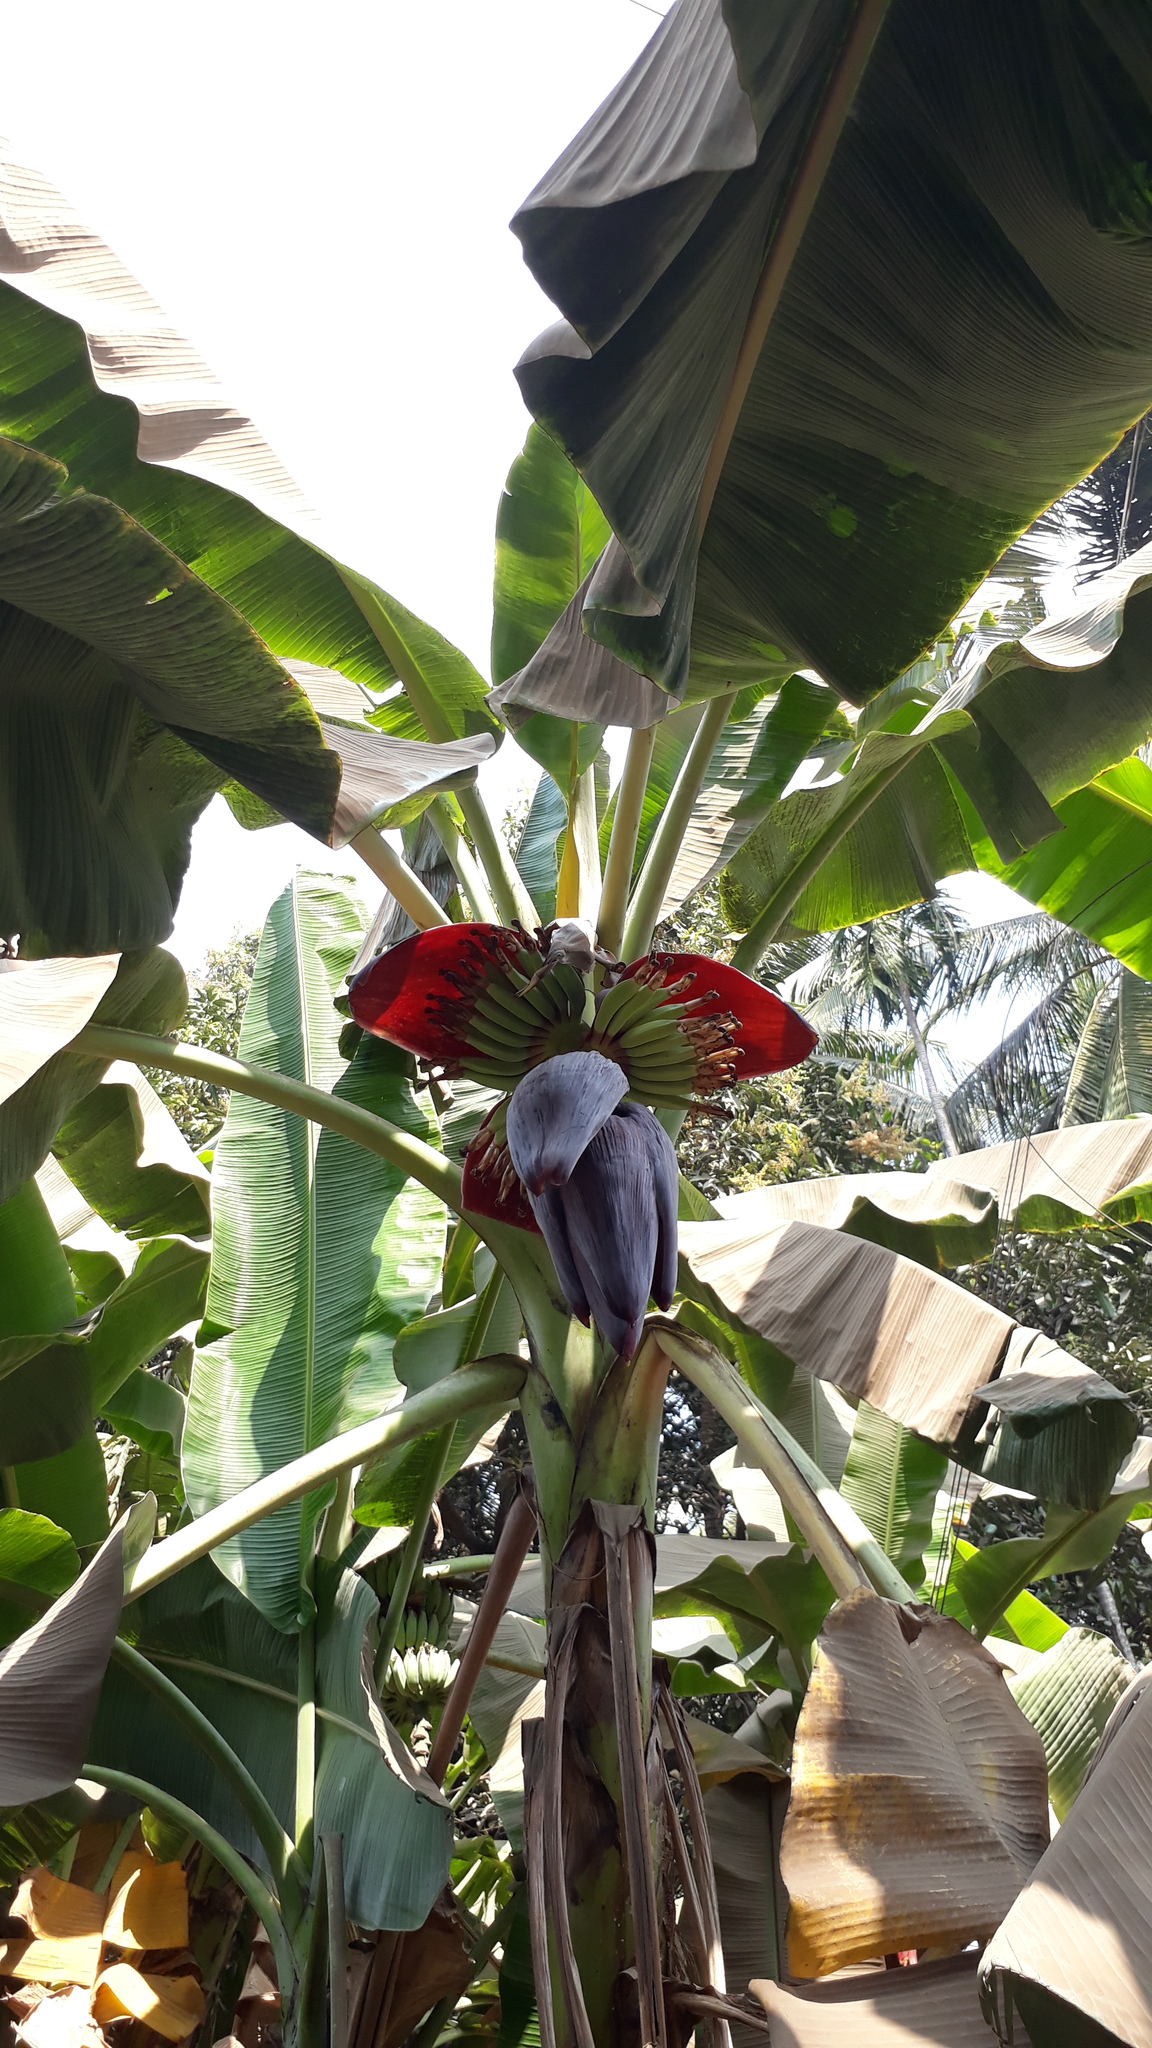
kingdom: Plantae
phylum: Tracheophyta
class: Liliopsida
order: Zingiberales
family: Musaceae
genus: Musa
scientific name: Musa paradisiaca
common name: French plantain
